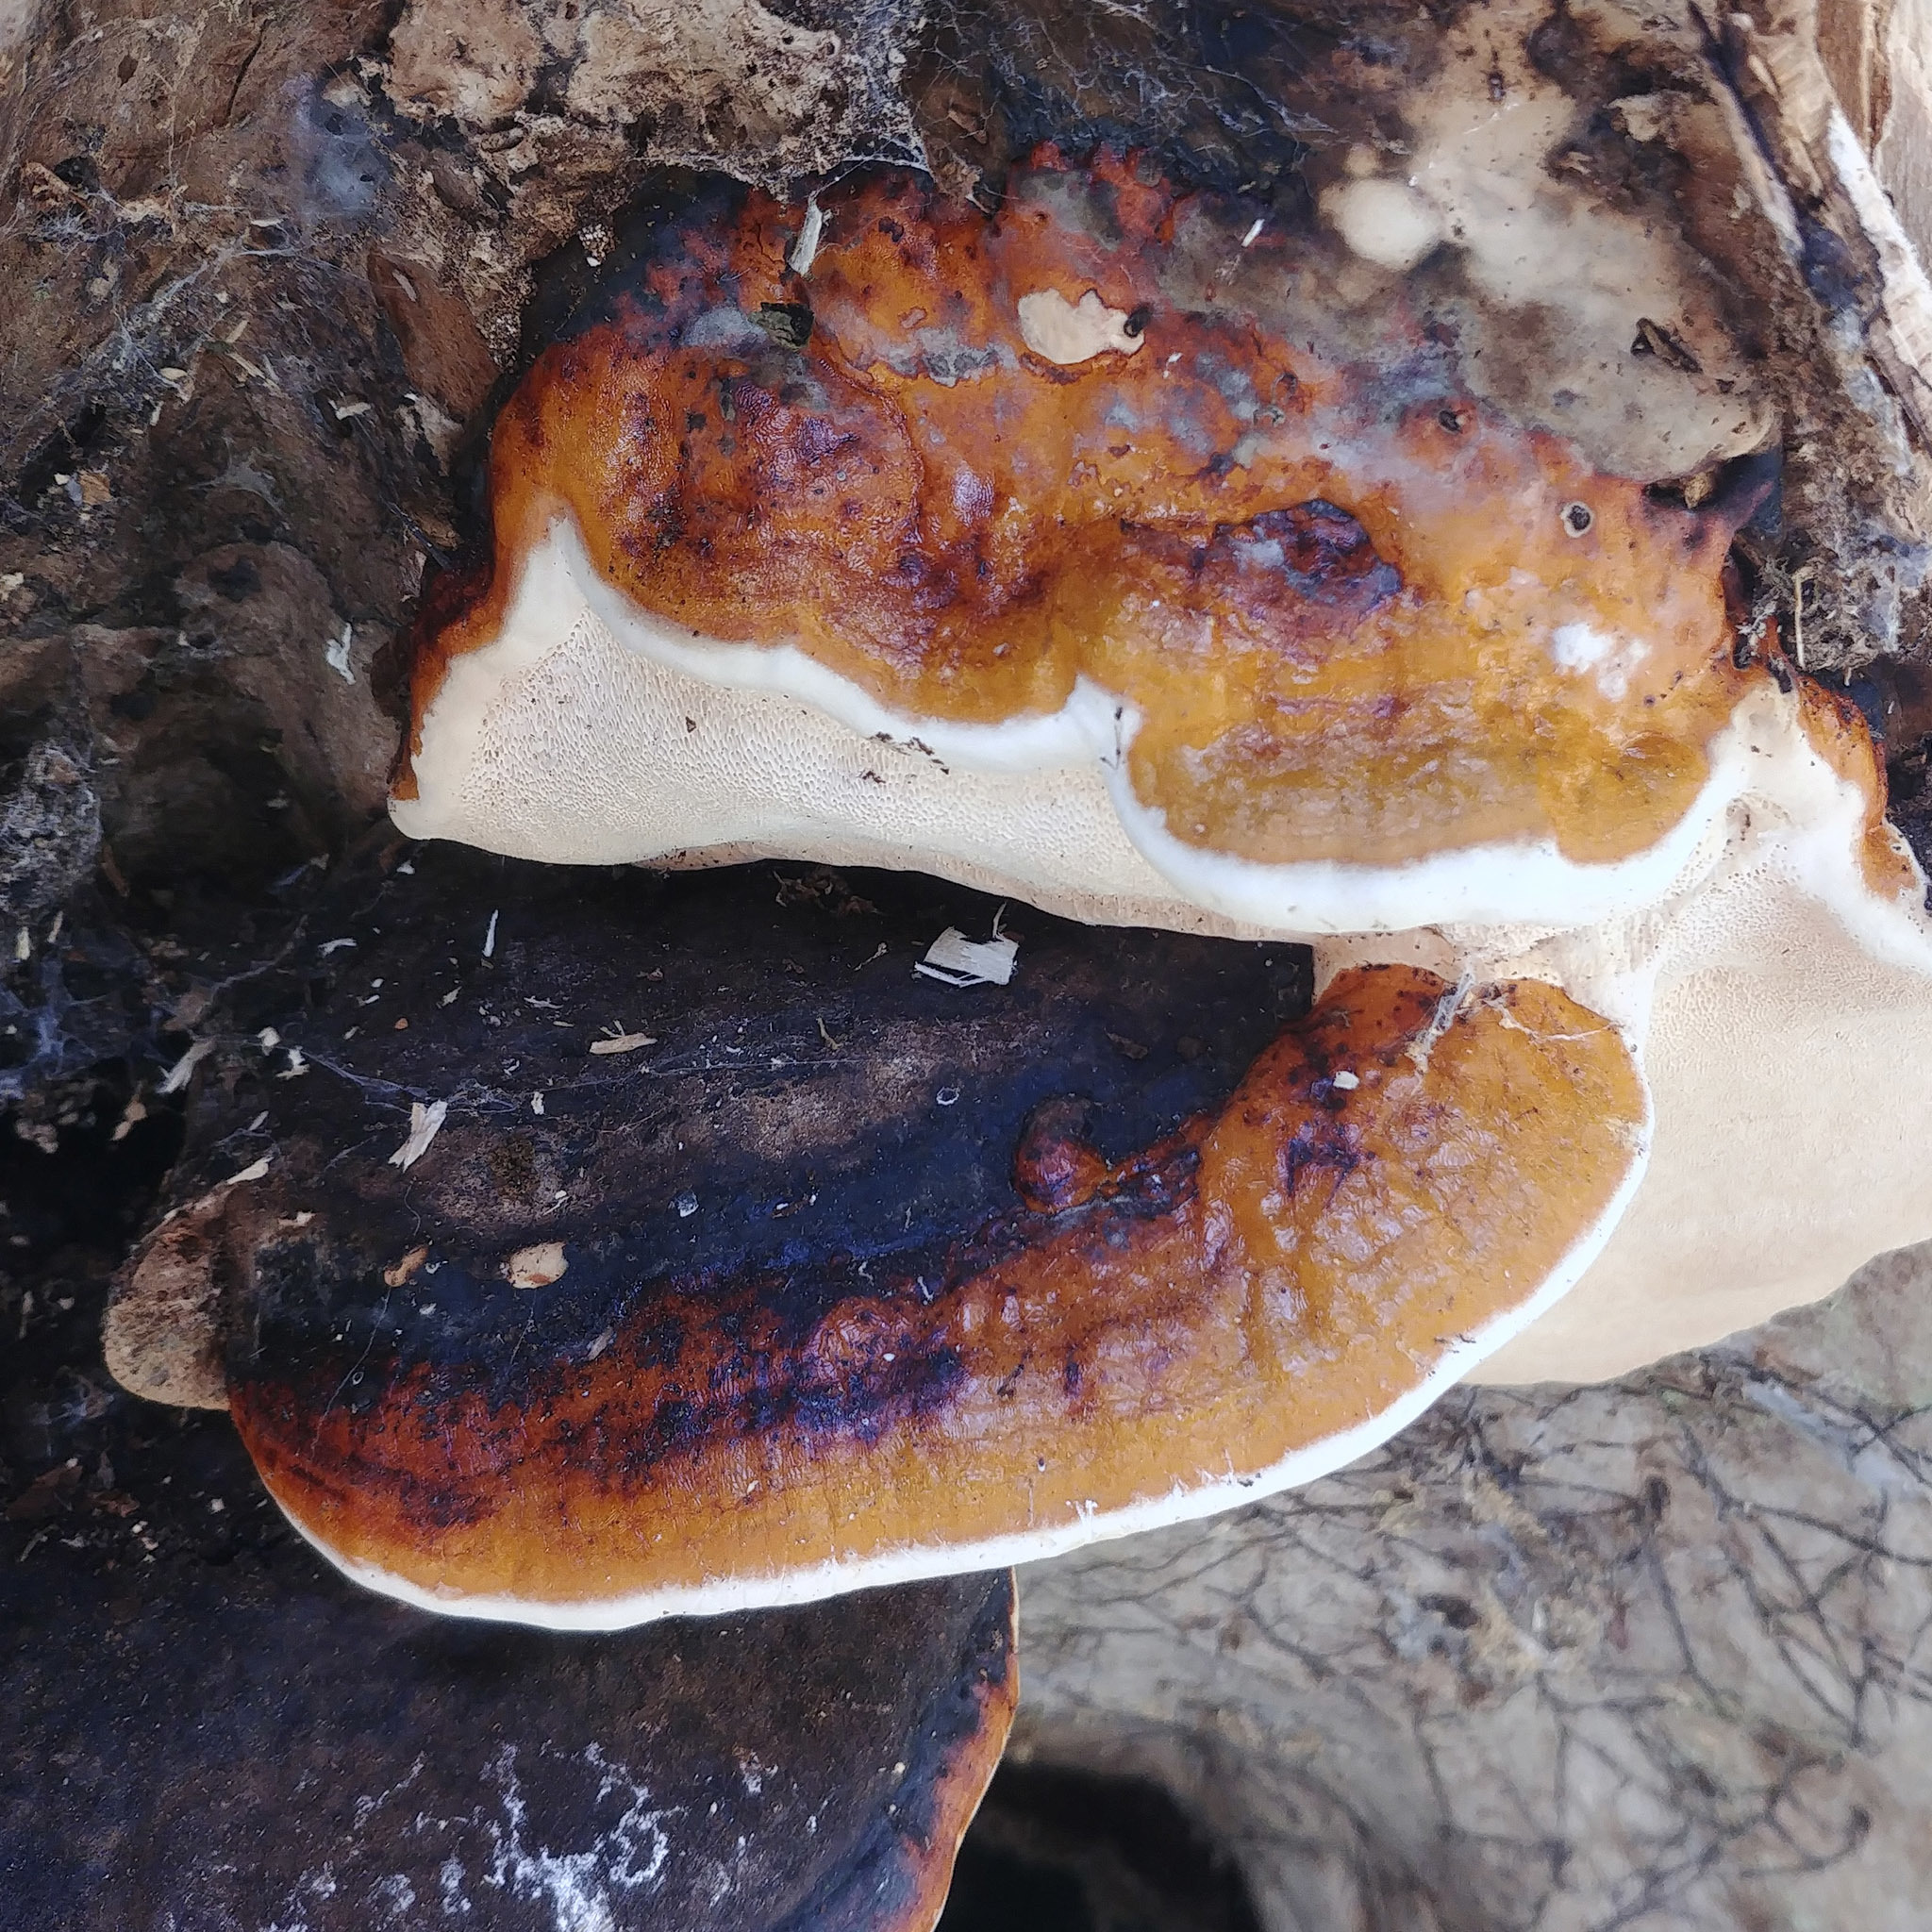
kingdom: Fungi
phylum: Basidiomycota
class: Agaricomycetes
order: Polyporales
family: Fomitopsidaceae
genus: Fomitopsis
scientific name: Fomitopsis pinicola
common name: Red-belted bracket
